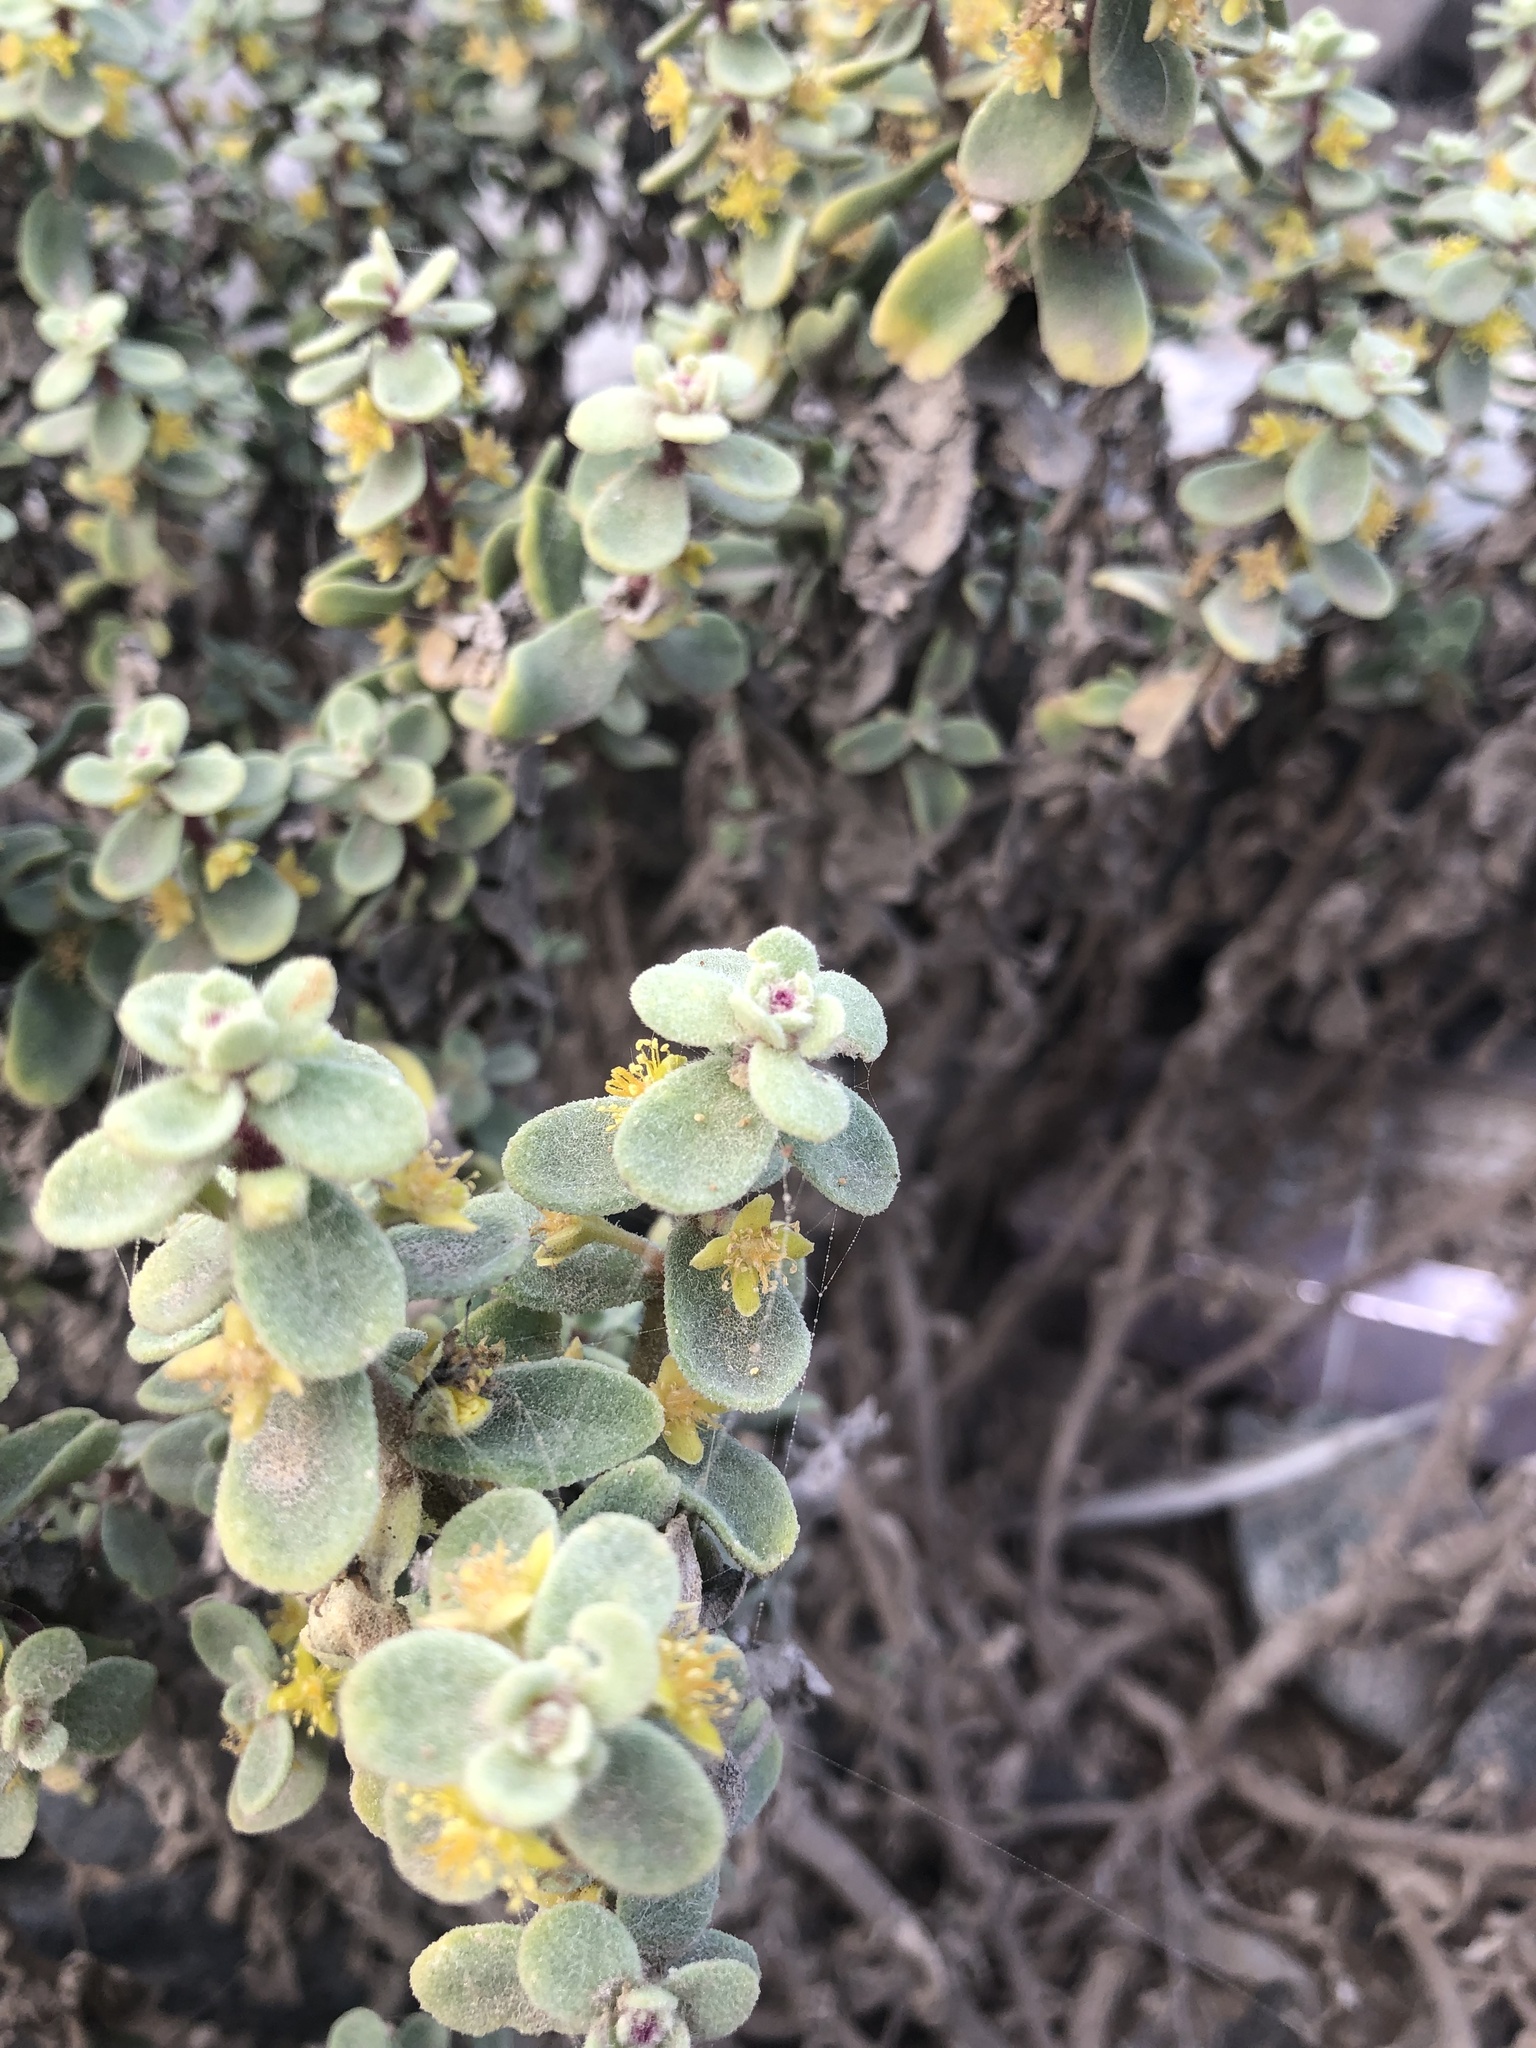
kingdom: Plantae
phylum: Tracheophyta
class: Magnoliopsida
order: Caryophyllales
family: Aizoaceae
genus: Tetragonia
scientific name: Tetragonia maritima
